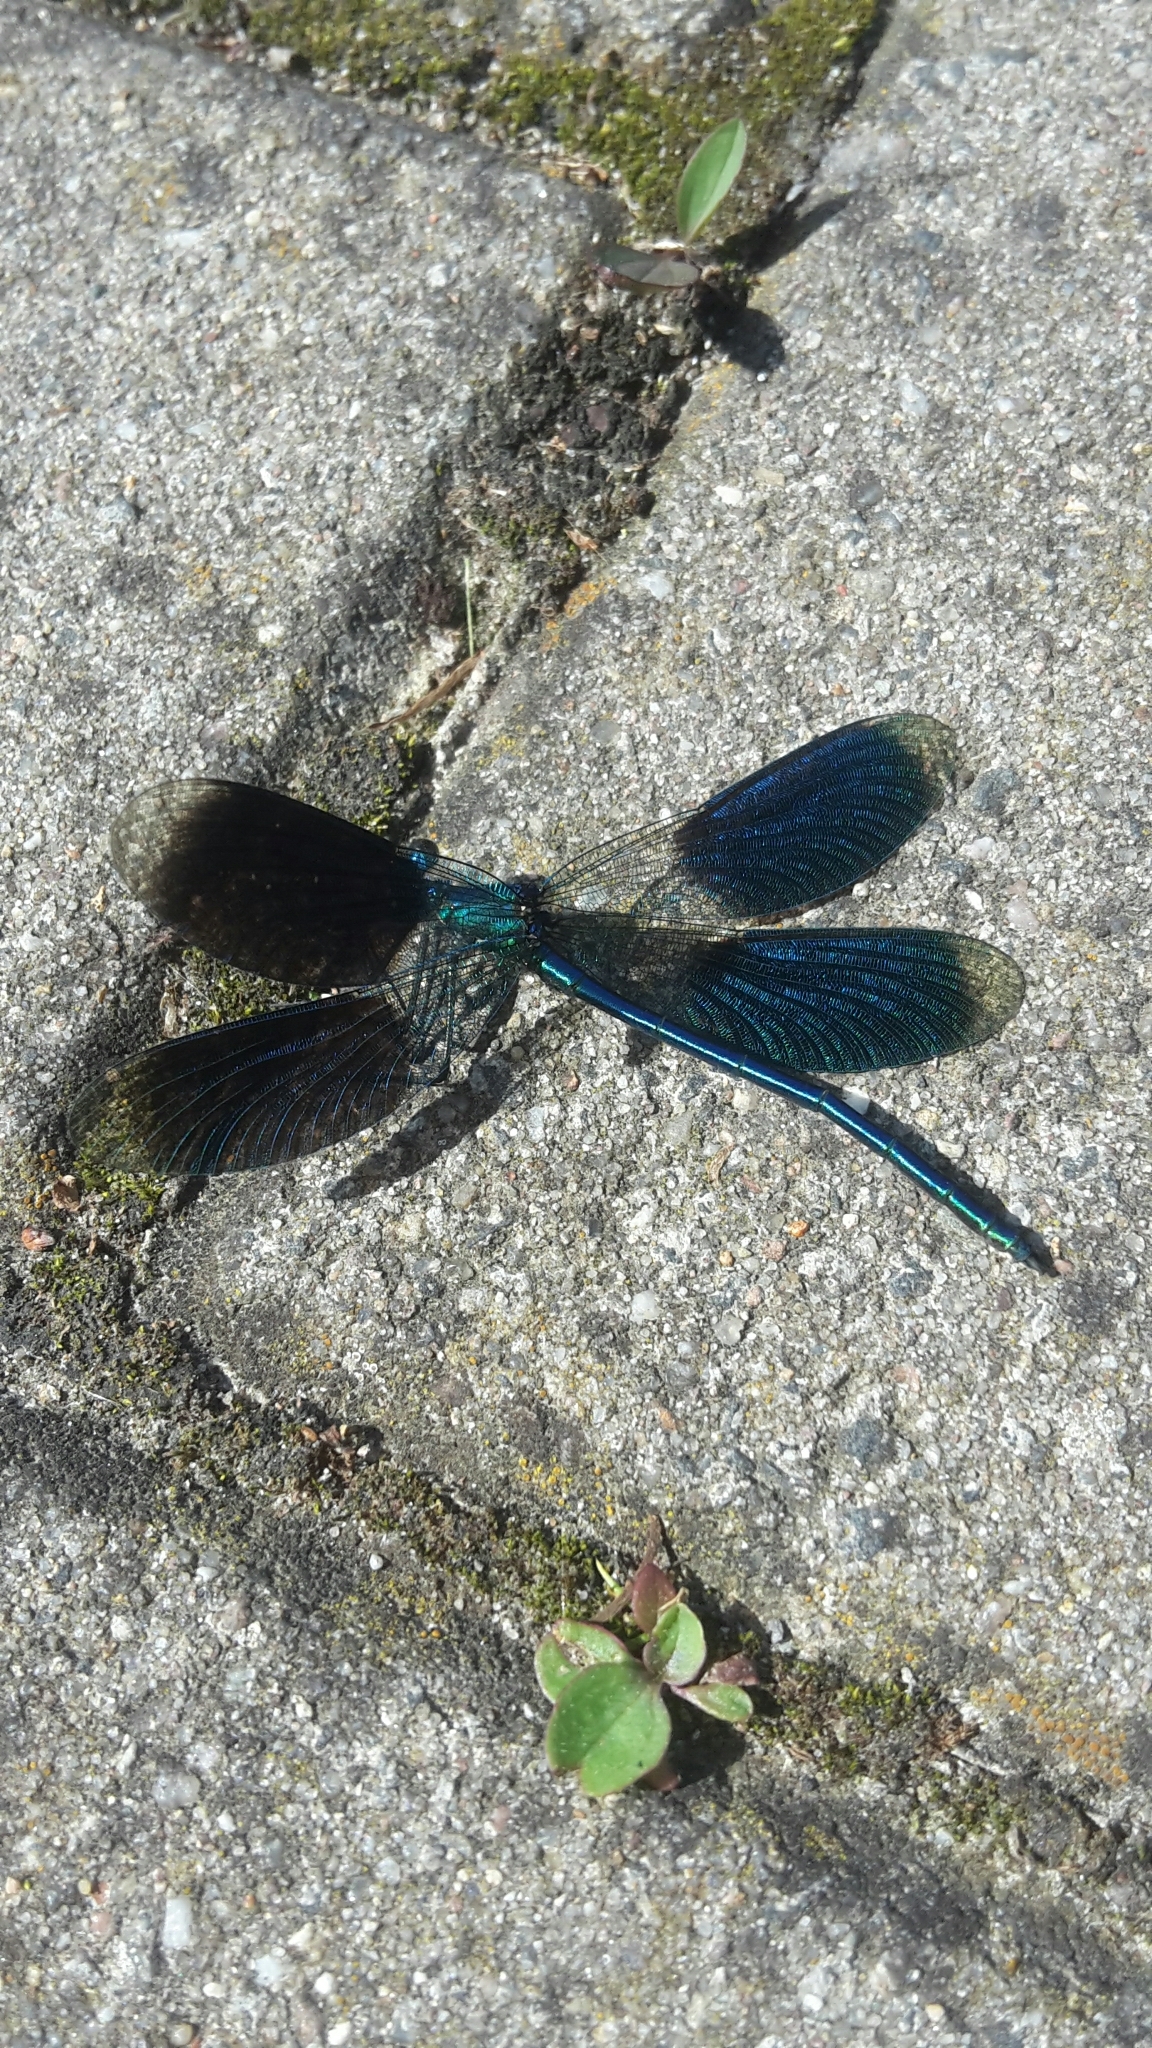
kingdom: Animalia
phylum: Arthropoda
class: Insecta
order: Odonata
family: Calopterygidae
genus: Calopteryx
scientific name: Calopteryx splendens
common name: Banded demoiselle
